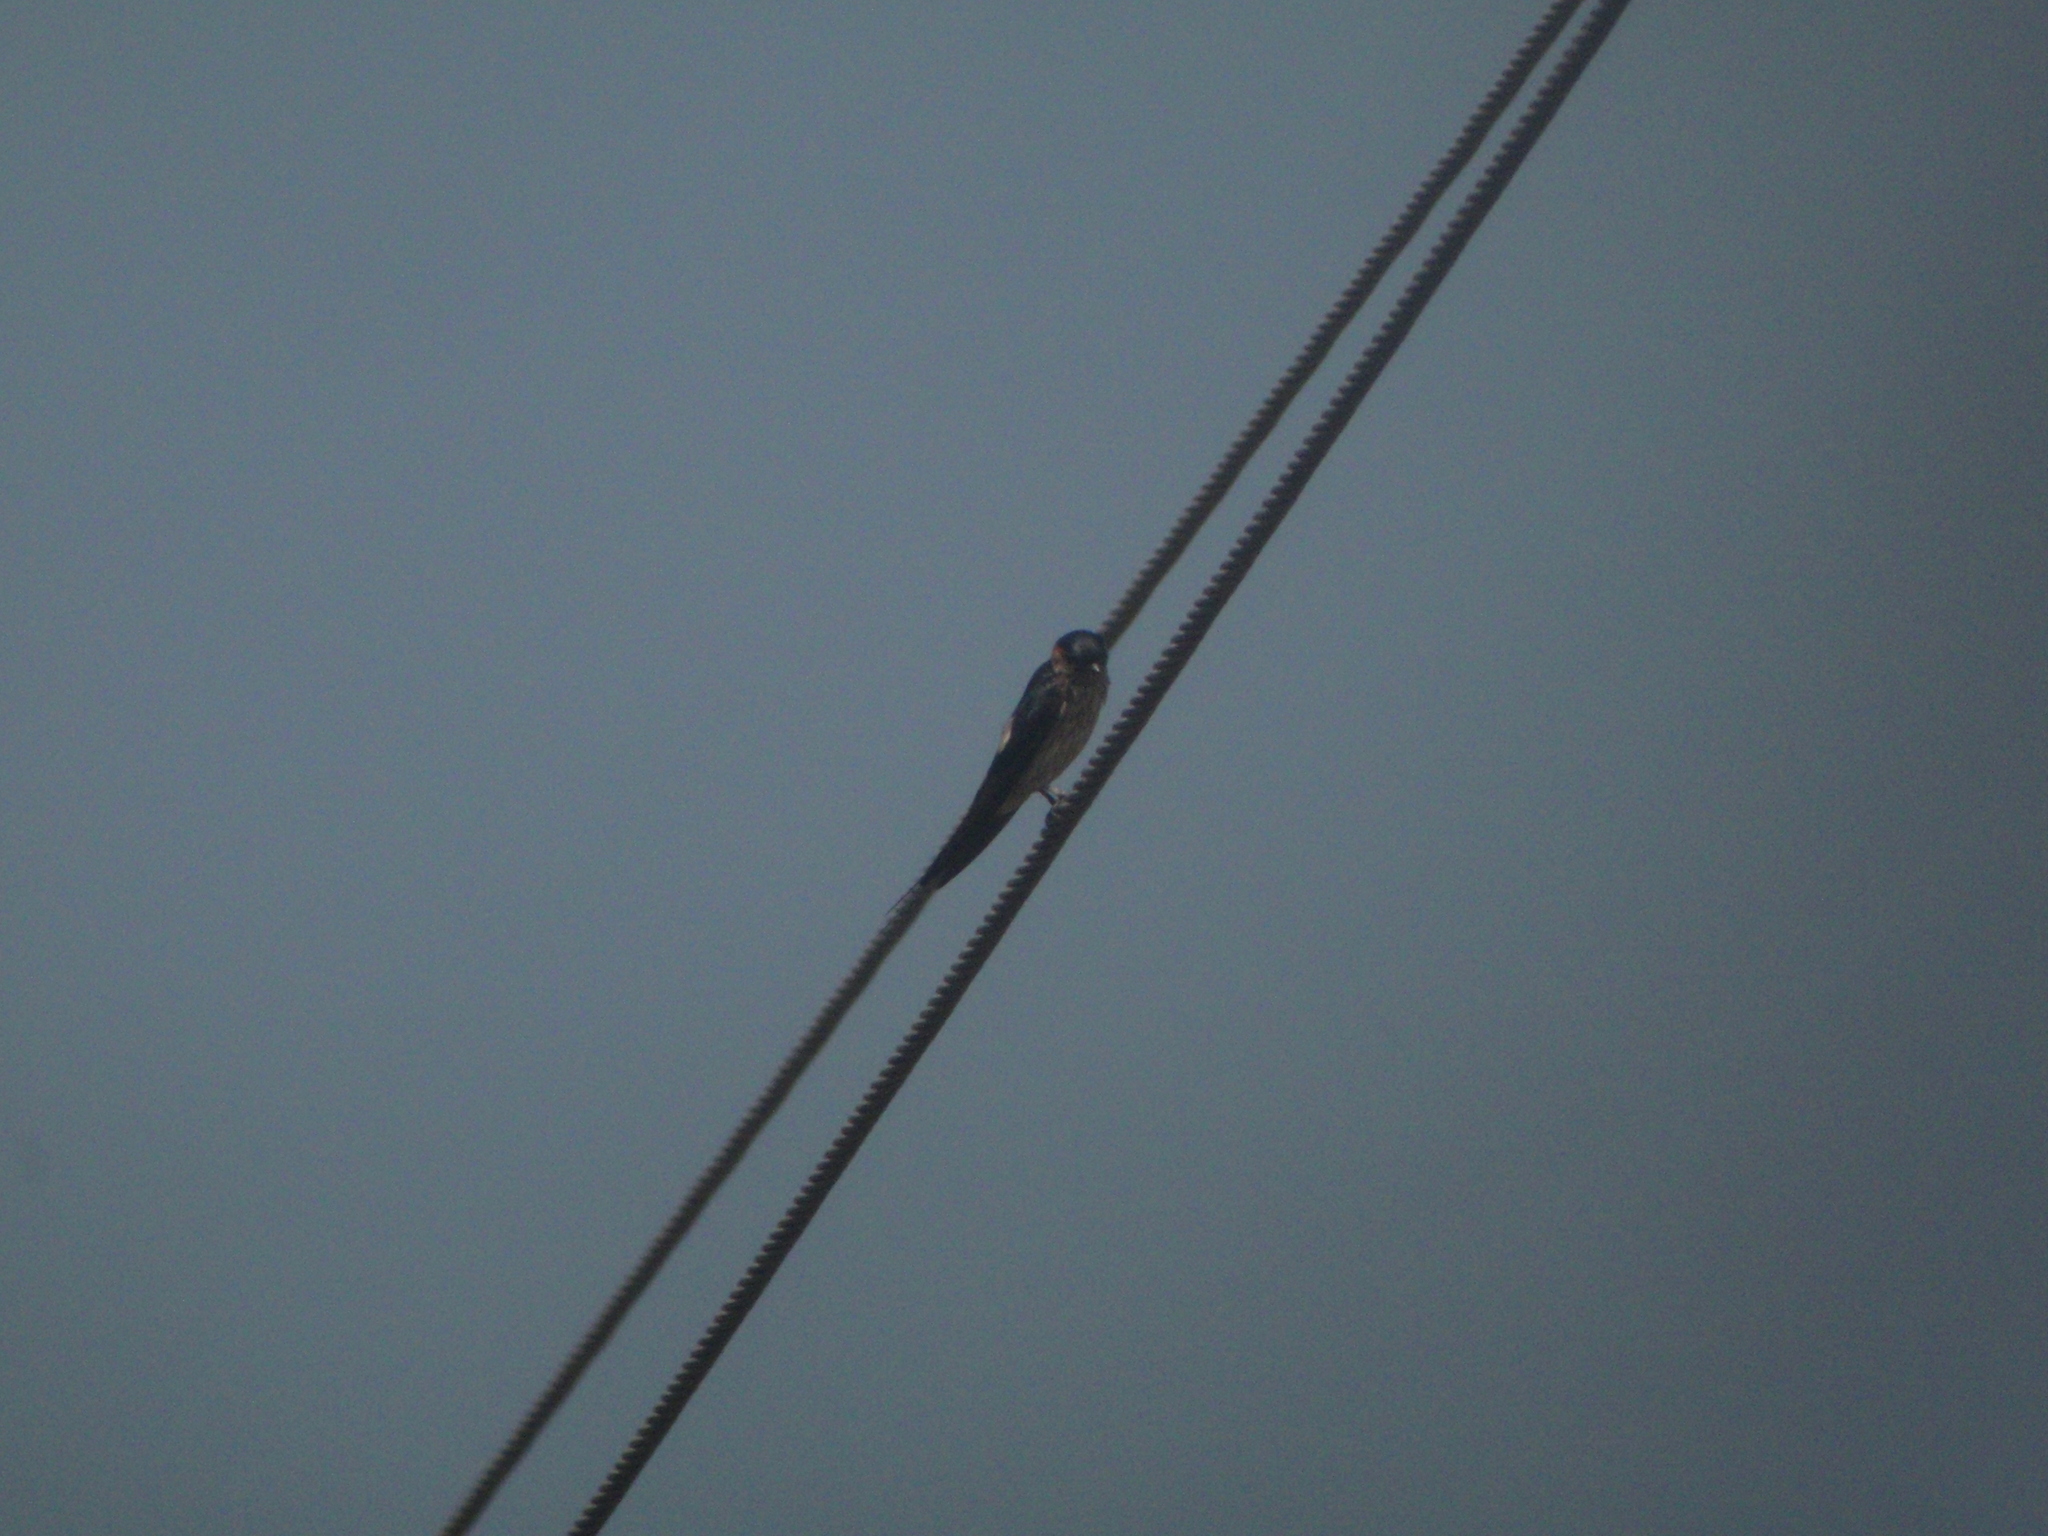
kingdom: Animalia
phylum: Chordata
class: Aves
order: Passeriformes
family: Hirundinidae
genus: Cecropis
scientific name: Cecropis daurica
